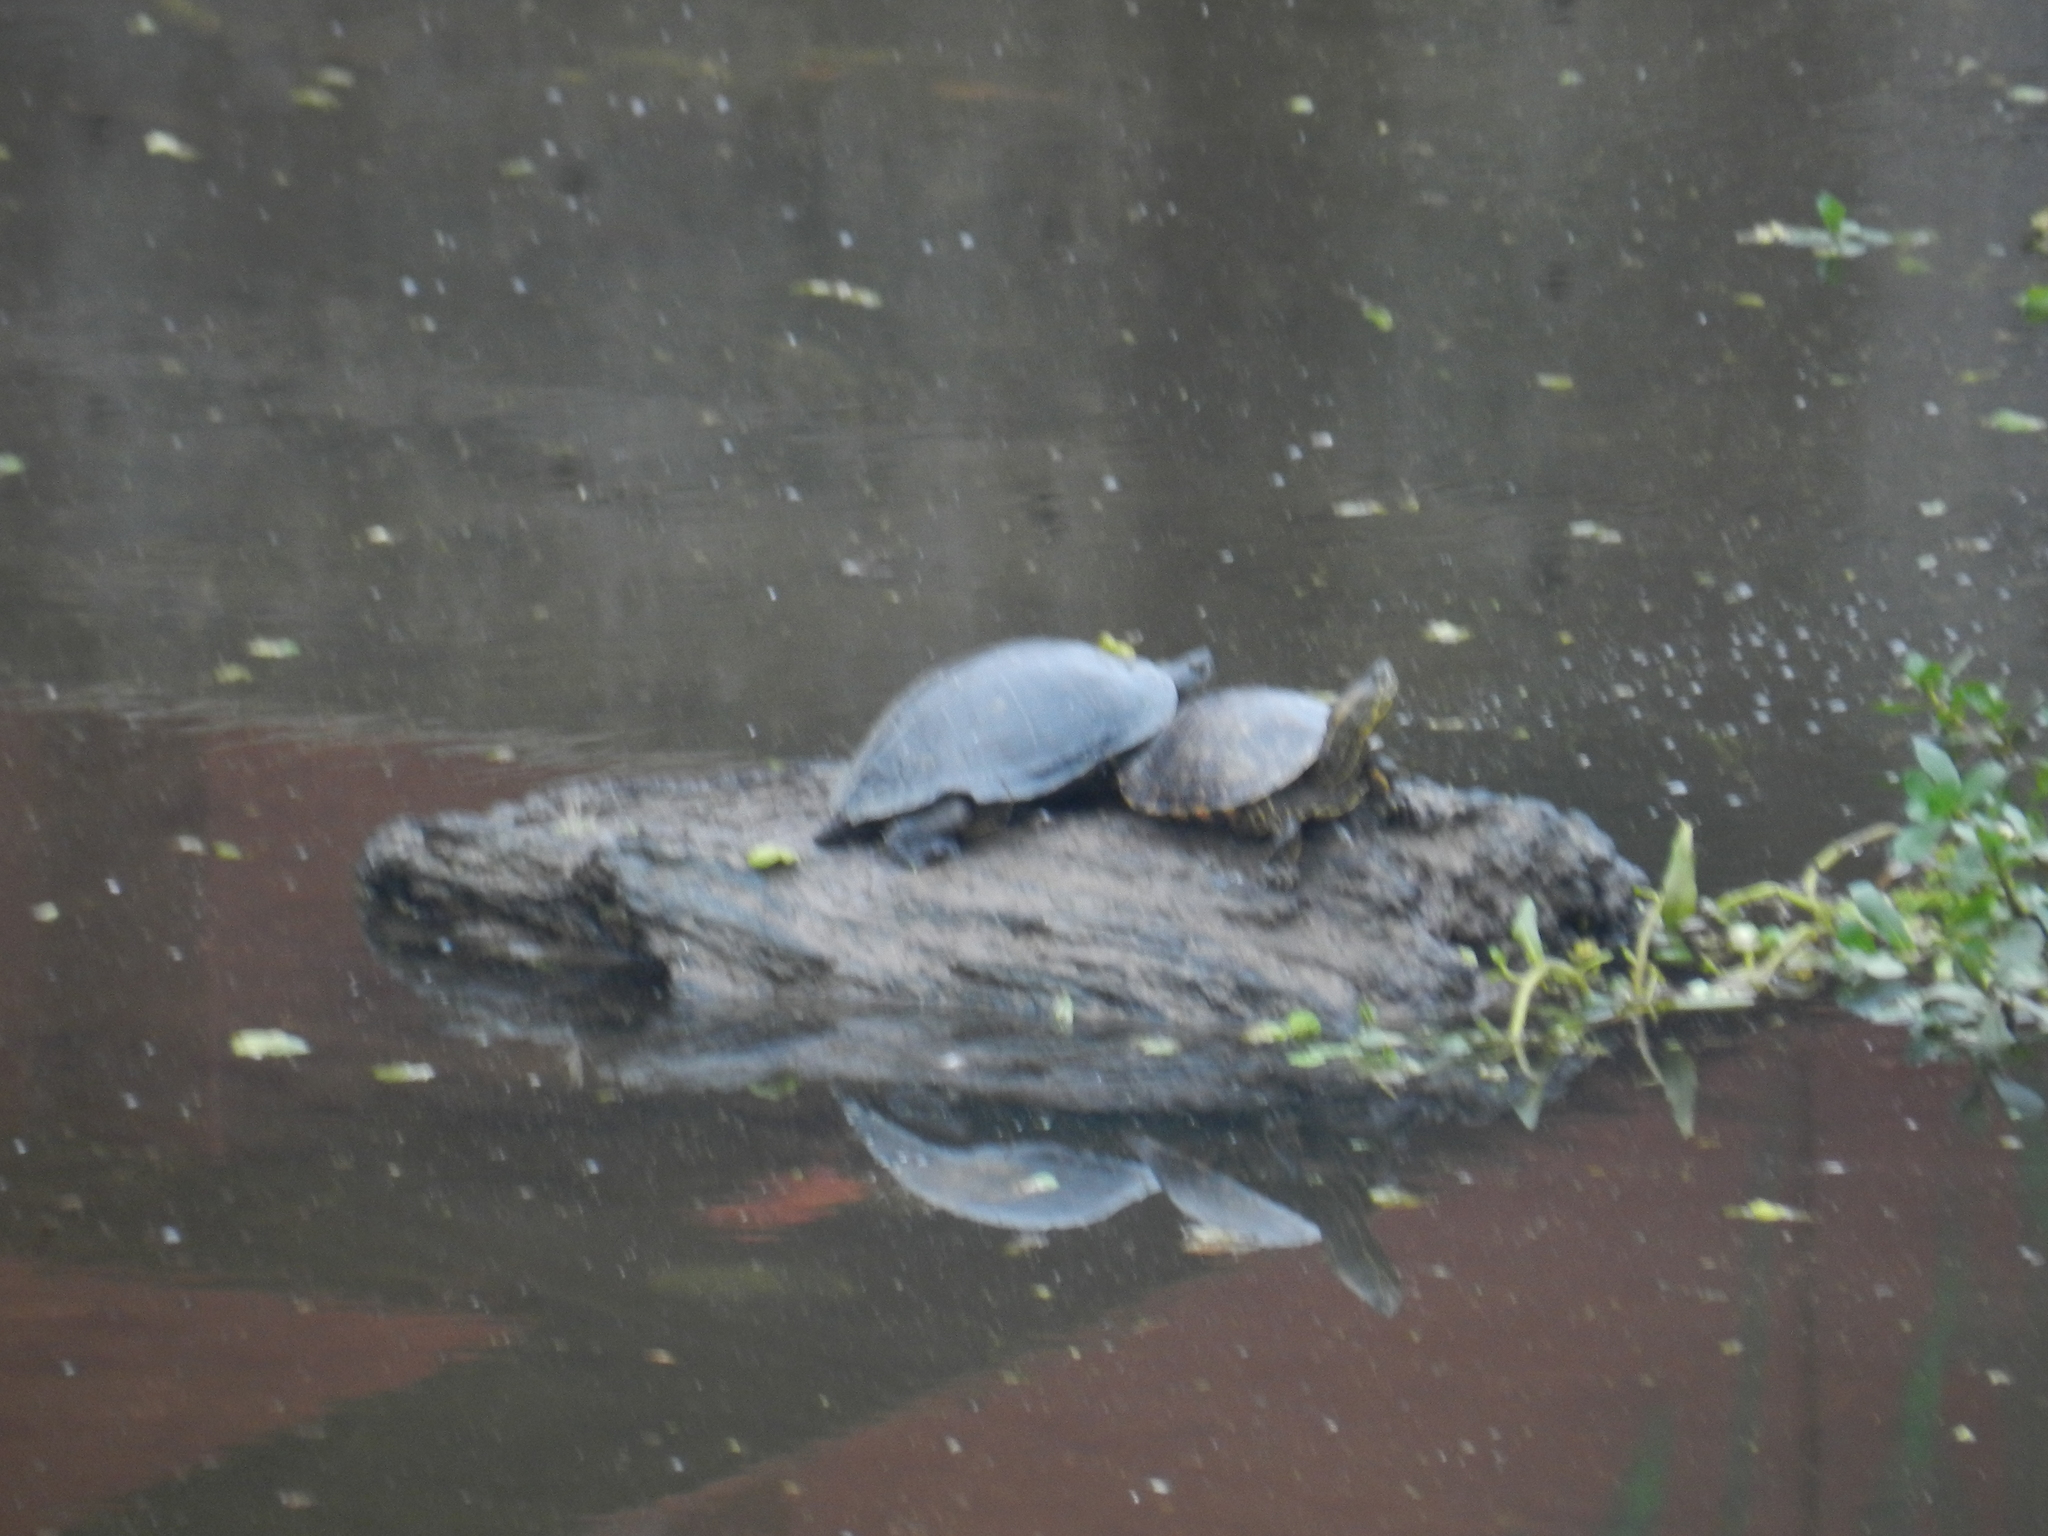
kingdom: Animalia
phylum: Chordata
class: Testudines
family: Emydidae
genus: Trachemys
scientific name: Trachemys dorbigni
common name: Black-bellied slider
